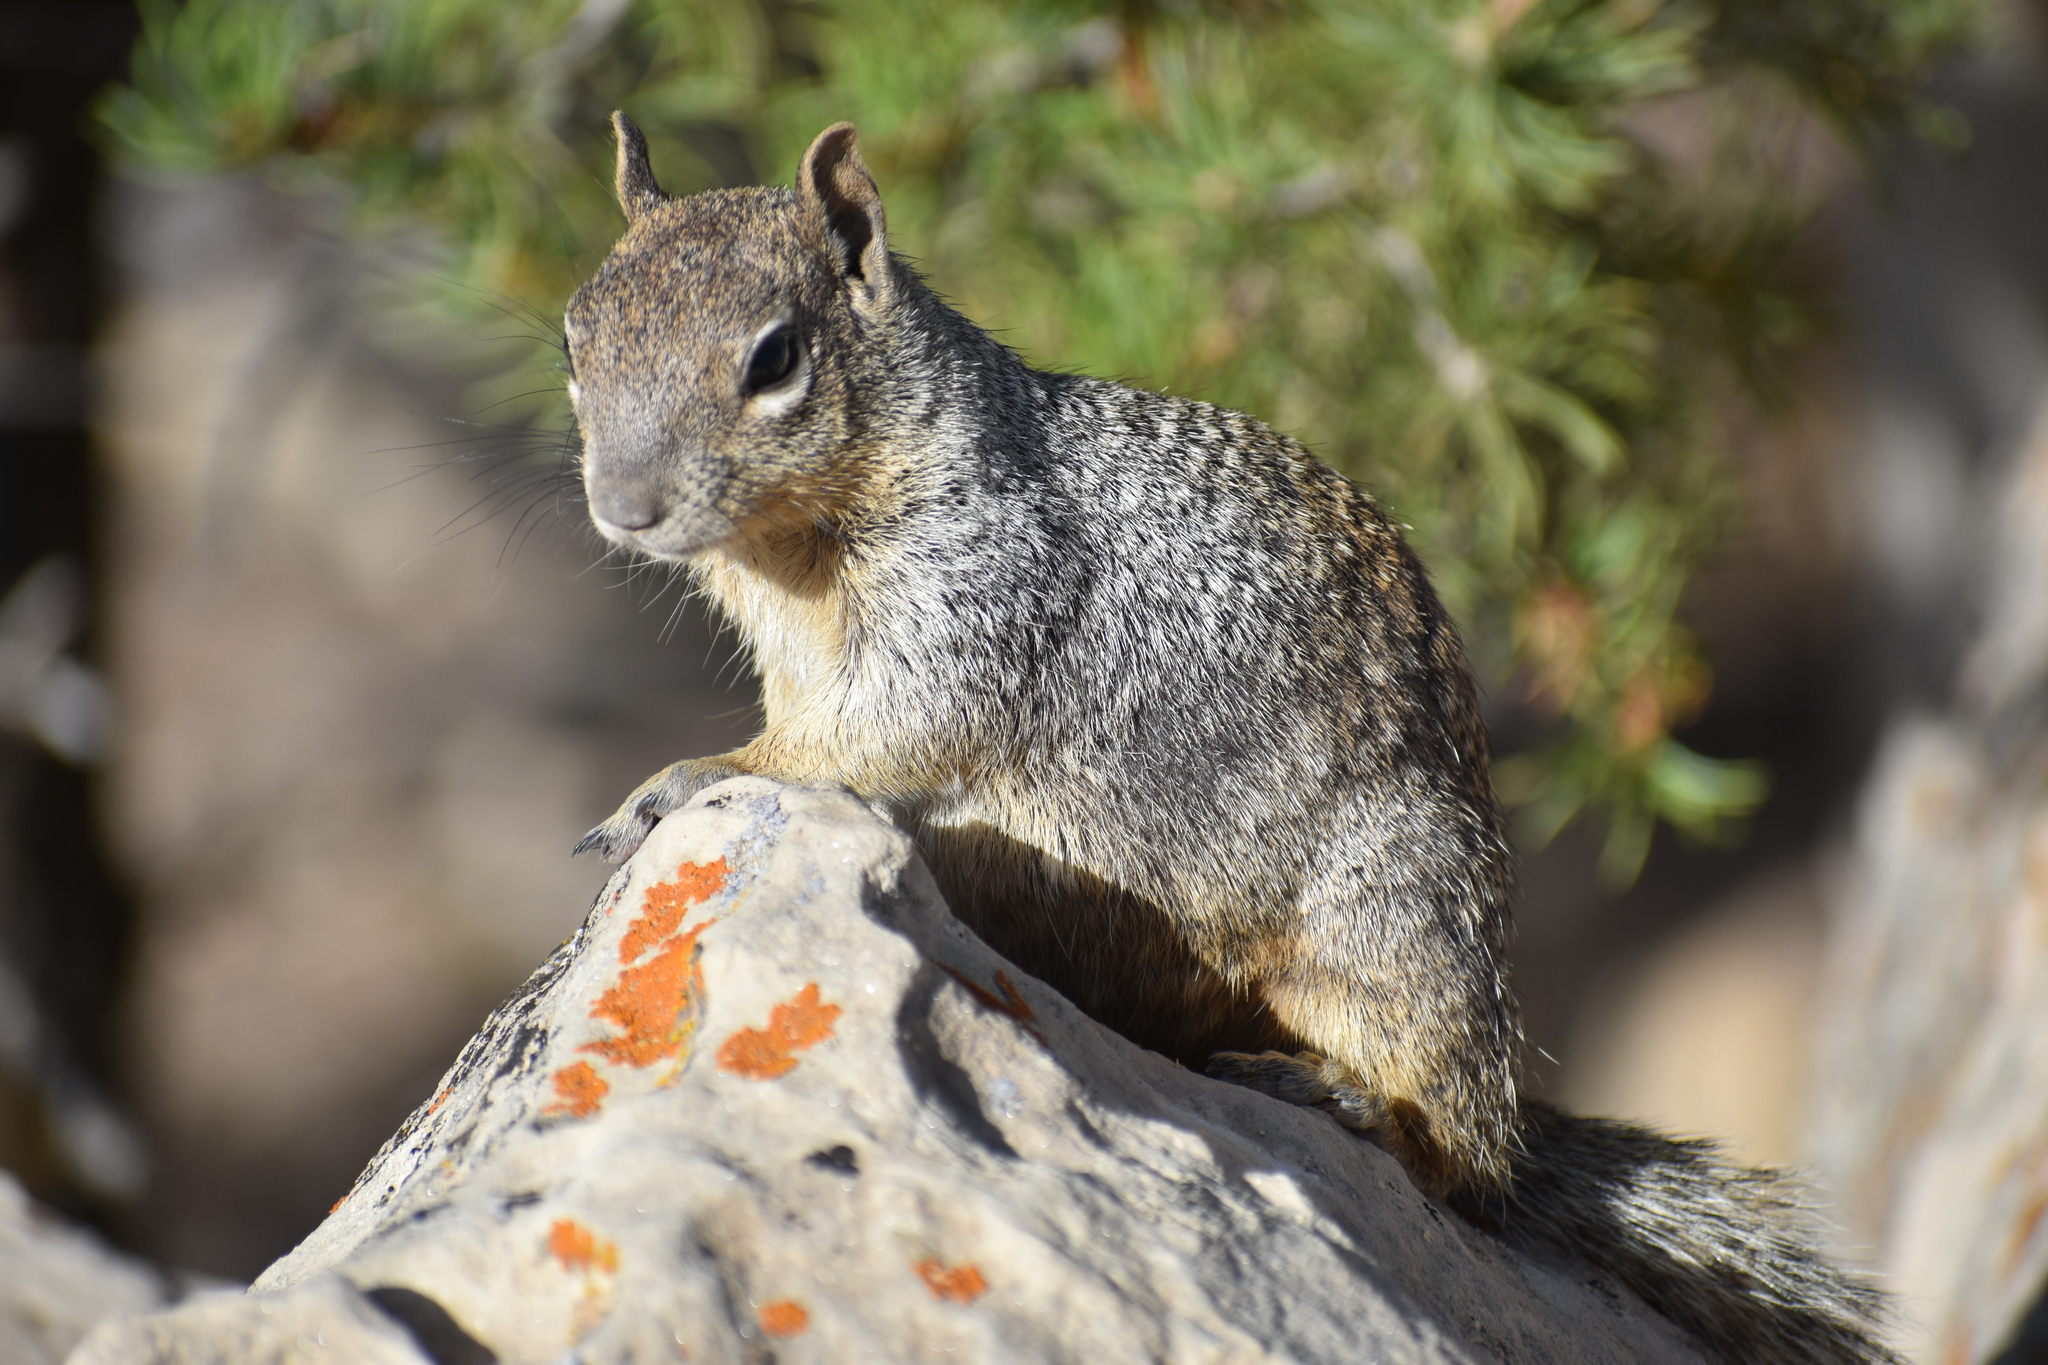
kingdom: Animalia
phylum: Chordata
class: Mammalia
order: Rodentia
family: Sciuridae
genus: Otospermophilus
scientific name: Otospermophilus variegatus
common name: Rock squirrel
